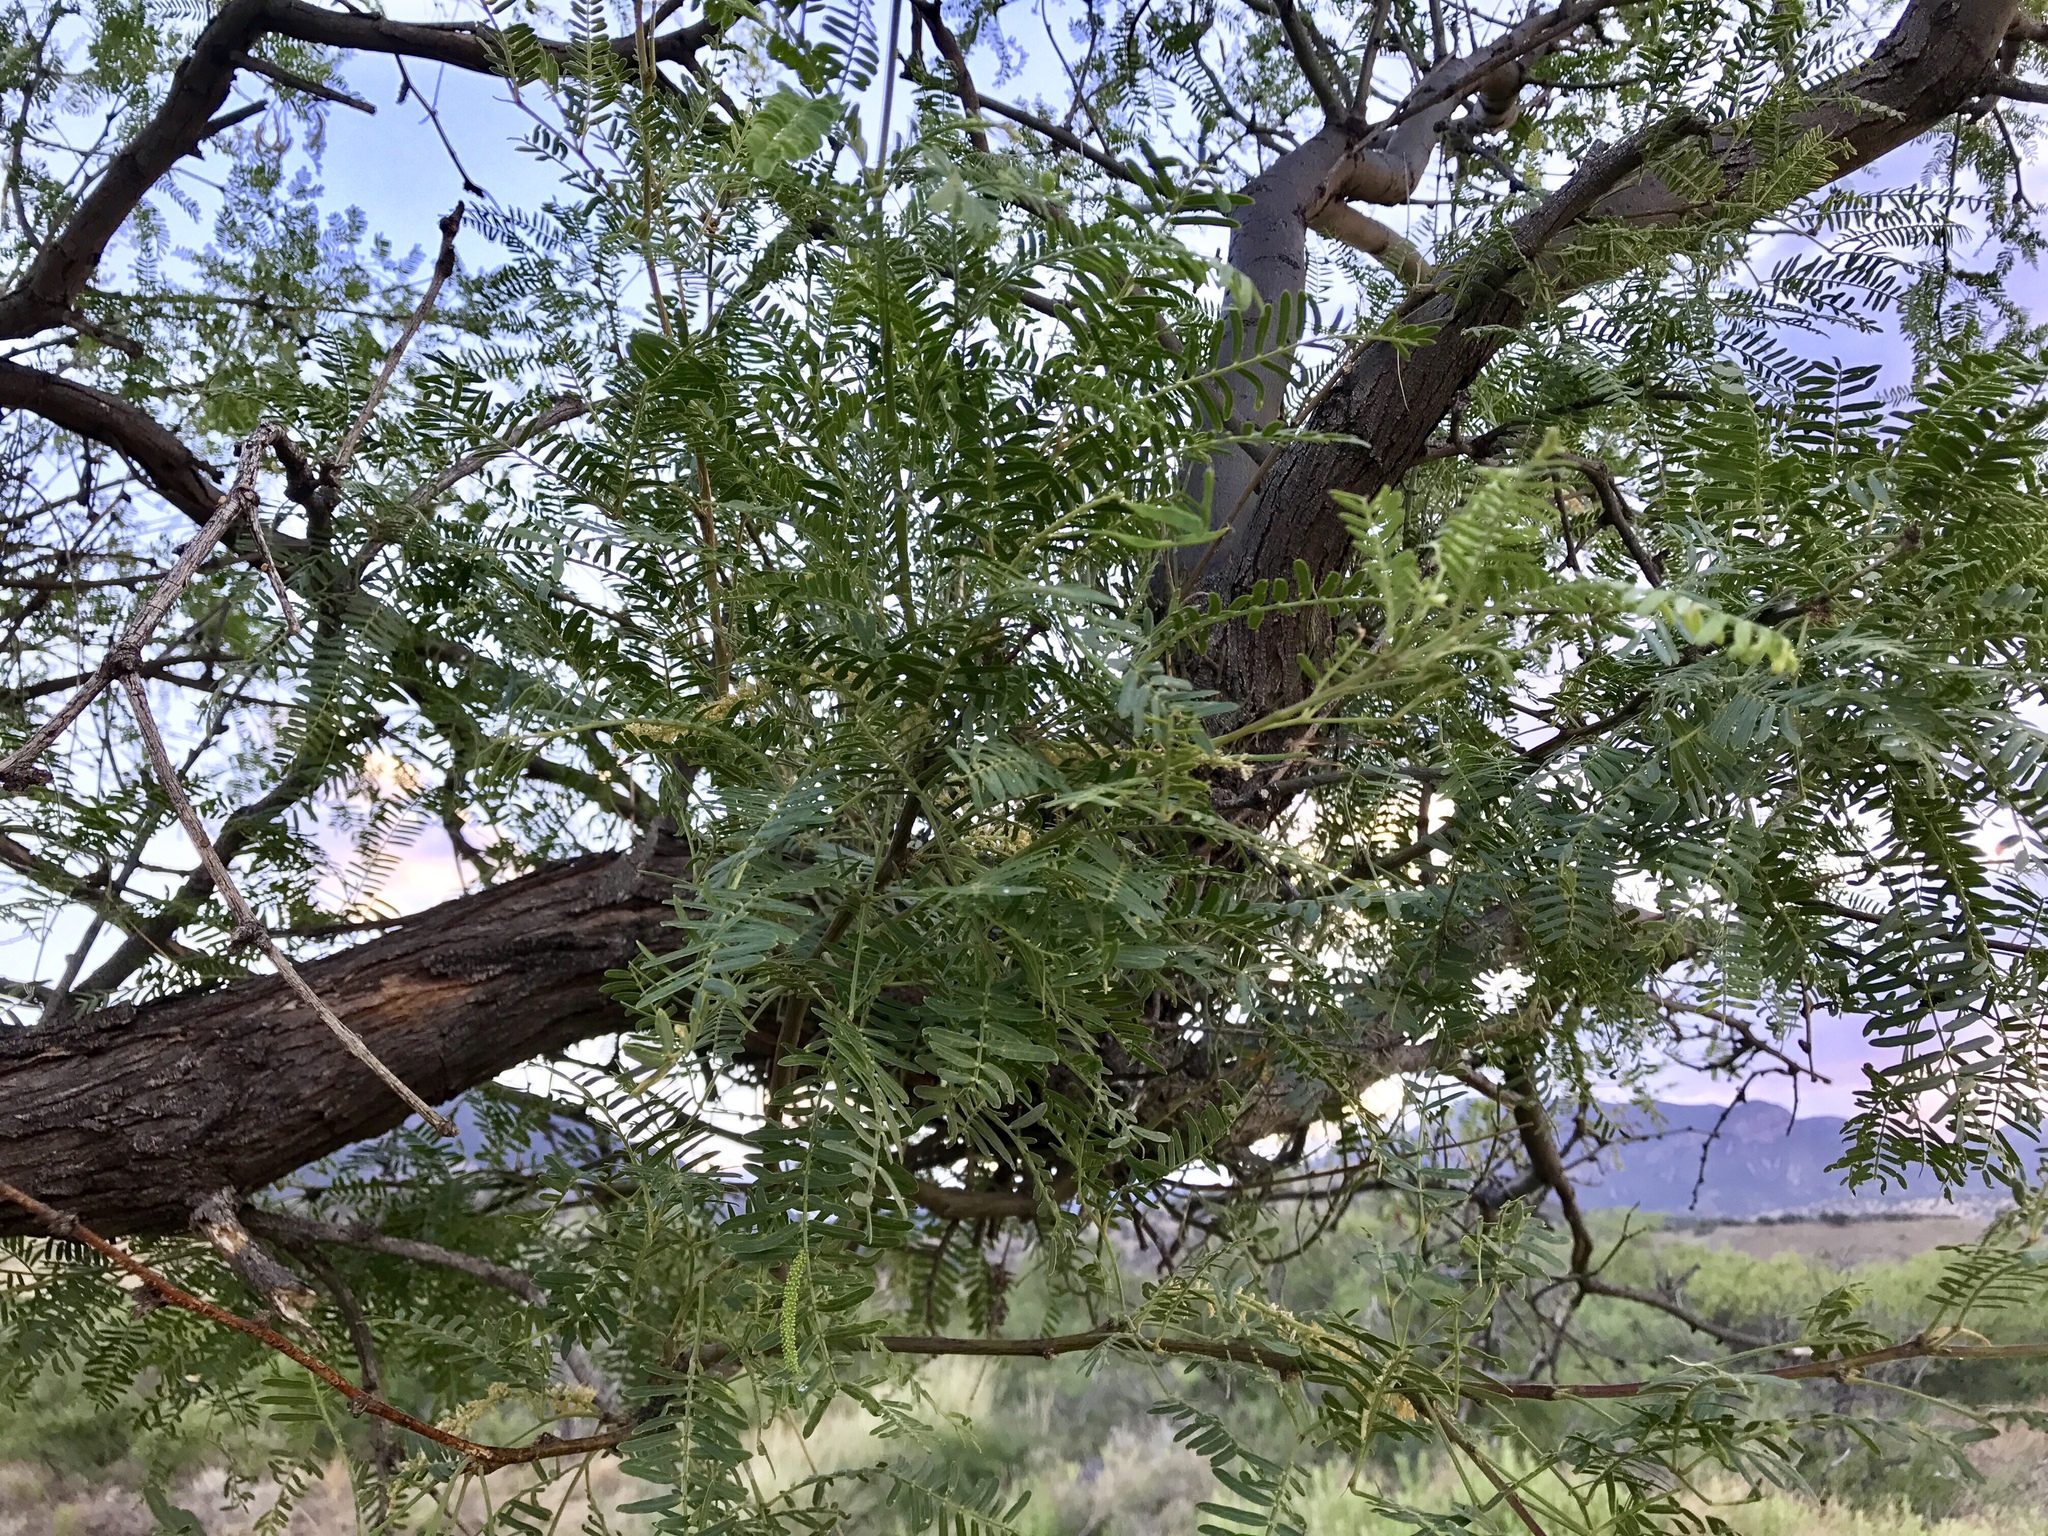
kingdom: Plantae
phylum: Tracheophyta
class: Magnoliopsida
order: Fabales
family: Fabaceae
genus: Prosopis
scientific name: Prosopis glandulosa
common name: Honey mesquite
